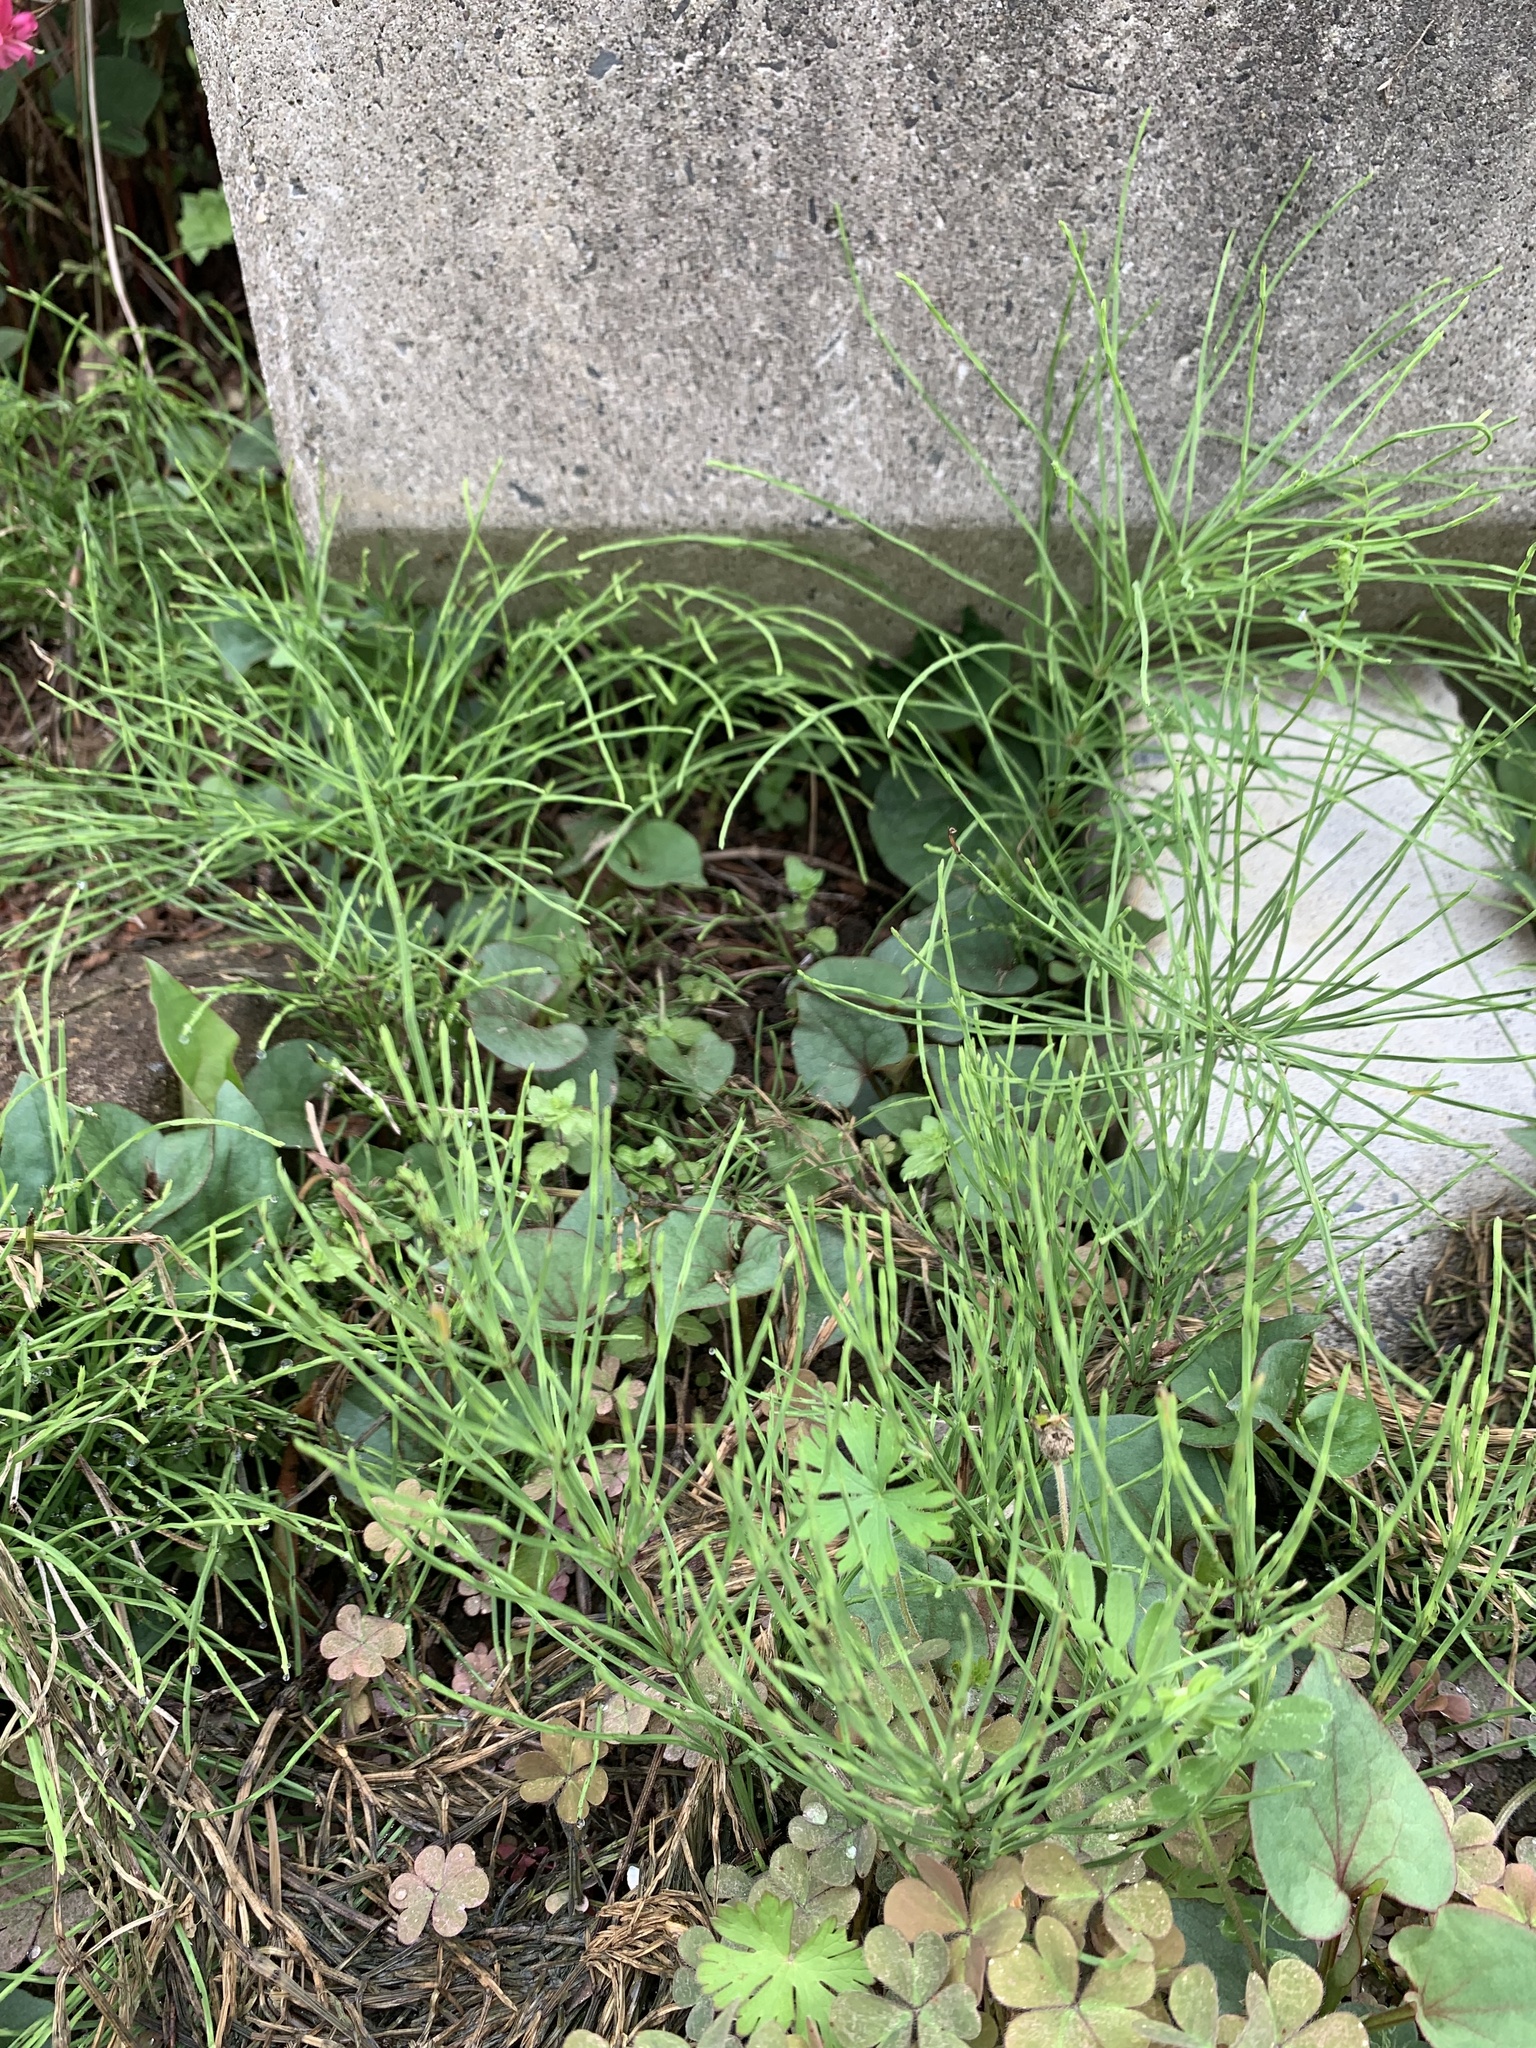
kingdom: Plantae
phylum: Tracheophyta
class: Polypodiopsida
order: Equisetales
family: Equisetaceae
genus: Equisetum
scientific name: Equisetum arvense
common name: Field horsetail
